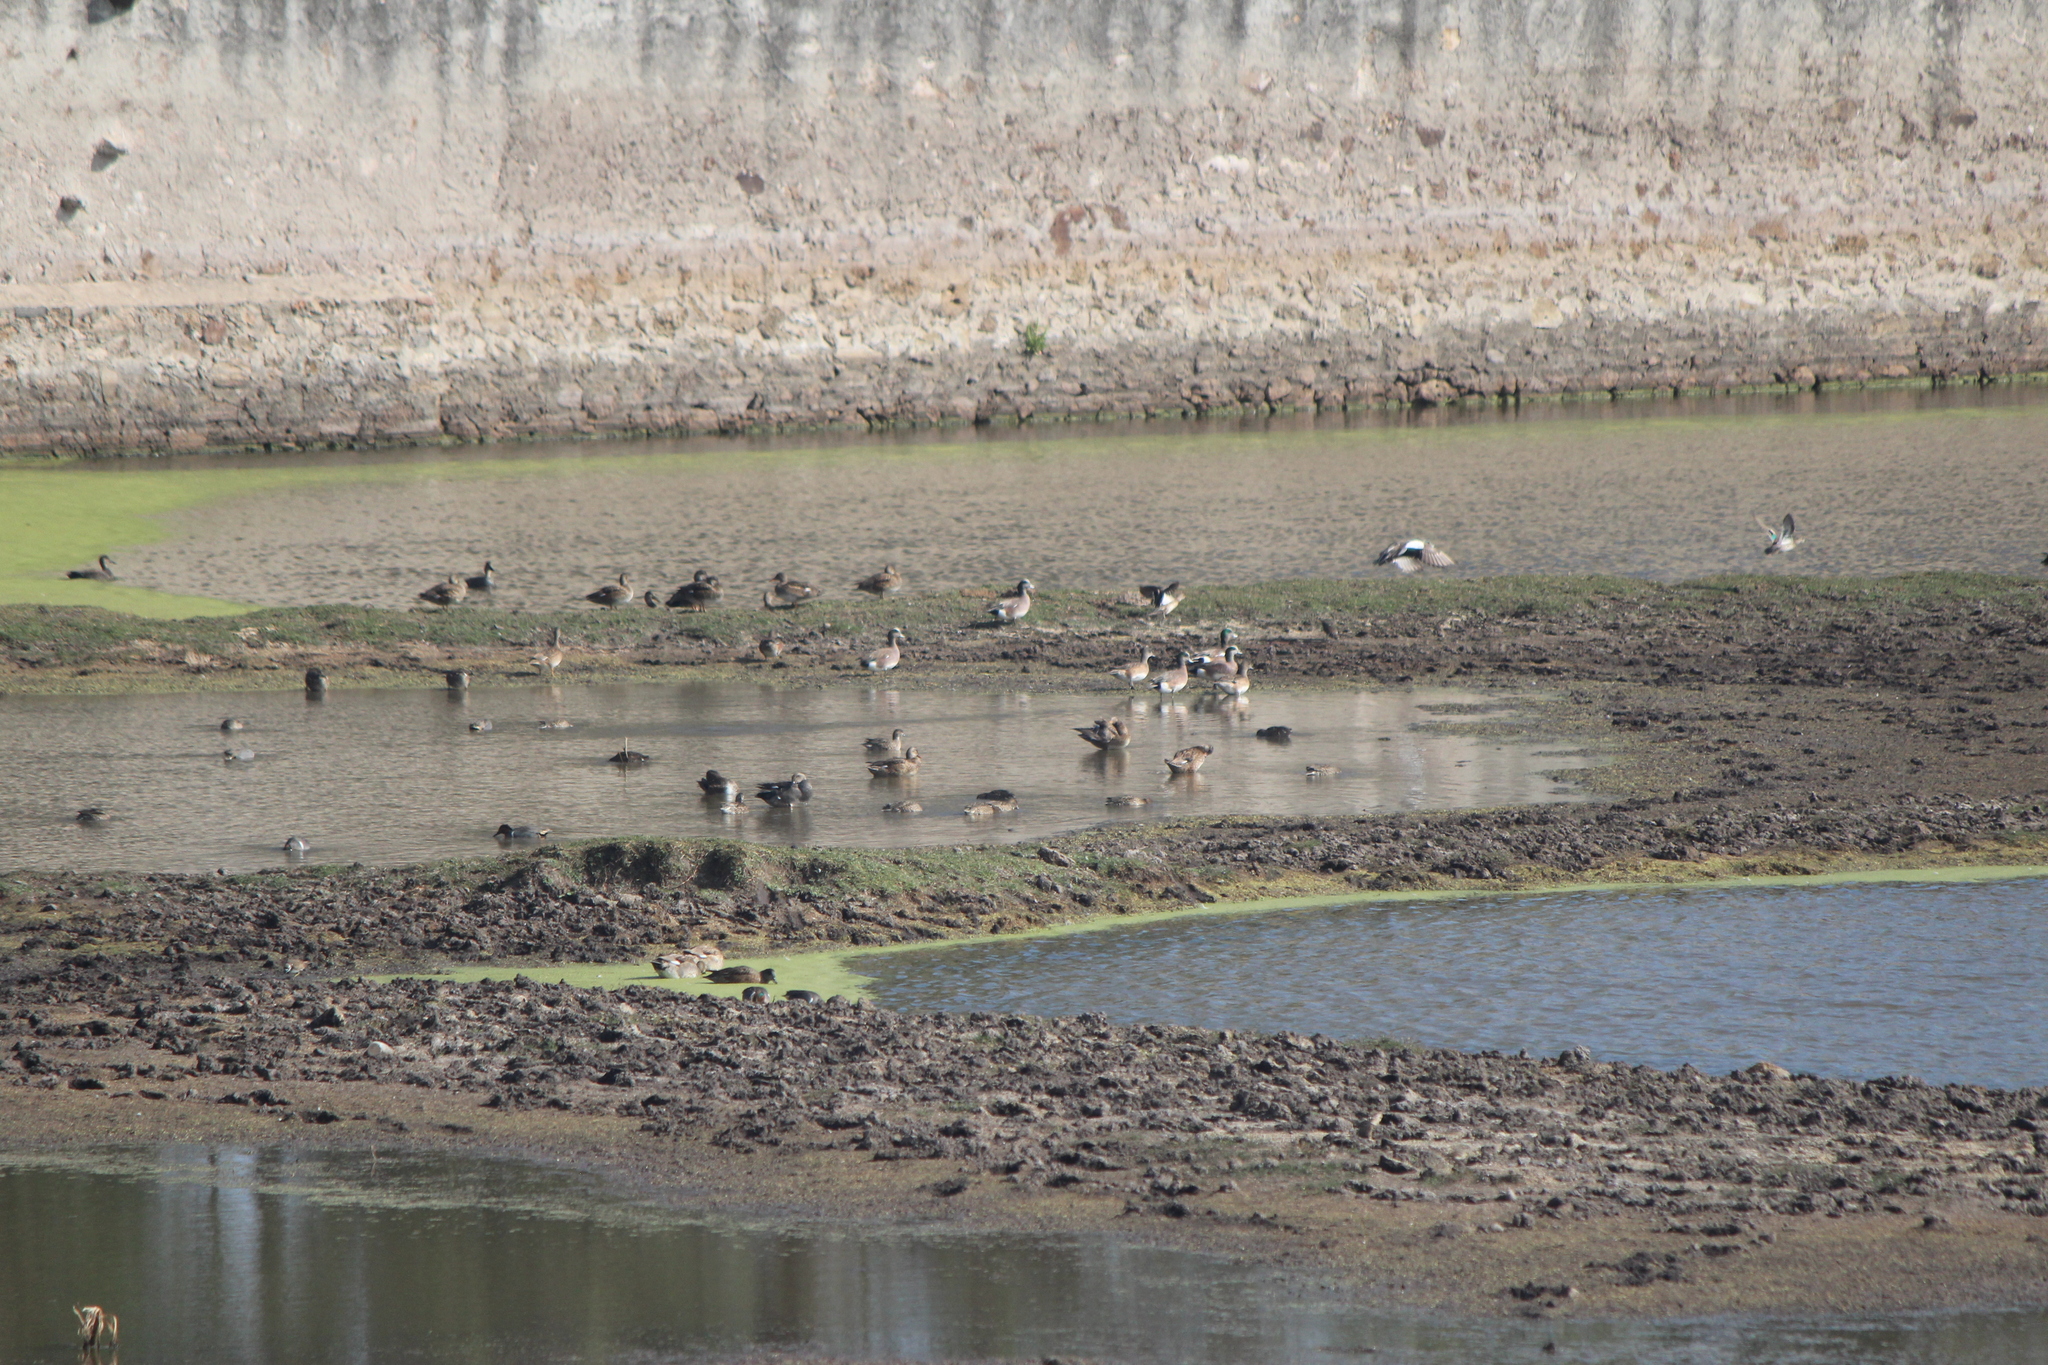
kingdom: Animalia
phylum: Chordata
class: Aves
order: Anseriformes
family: Anatidae
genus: Mareca
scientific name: Mareca americana
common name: American wigeon
